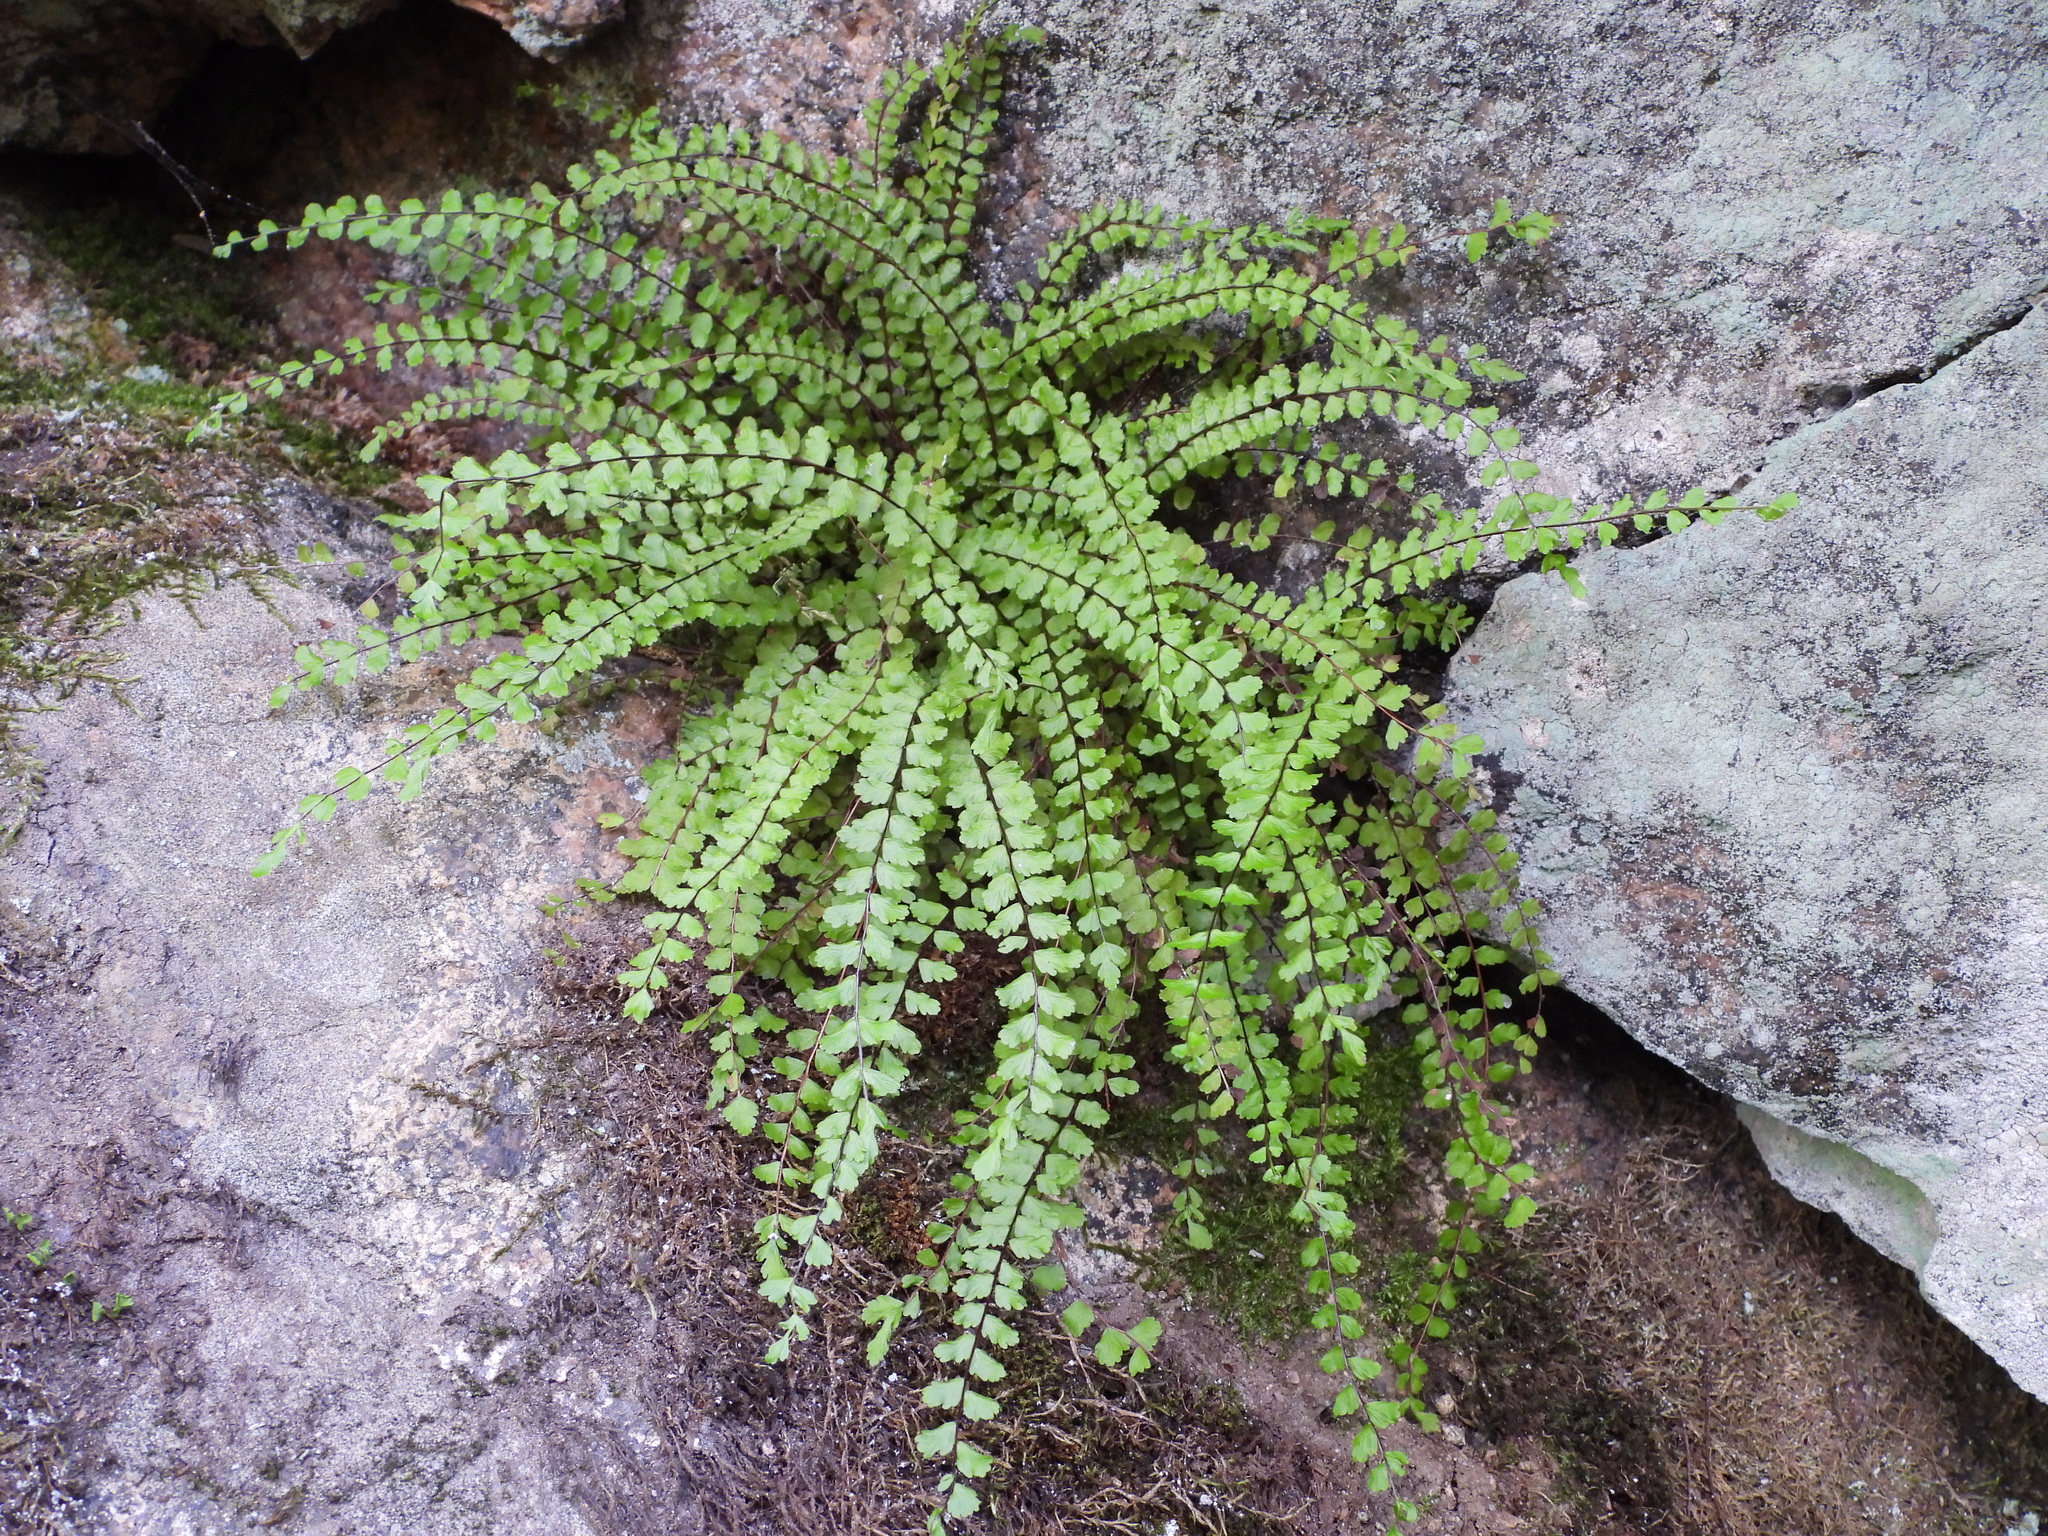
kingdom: Plantae
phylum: Tracheophyta
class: Polypodiopsida
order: Polypodiales
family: Aspleniaceae
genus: Asplenium
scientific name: Asplenium trichomanes
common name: Maidenhair spleenwort
